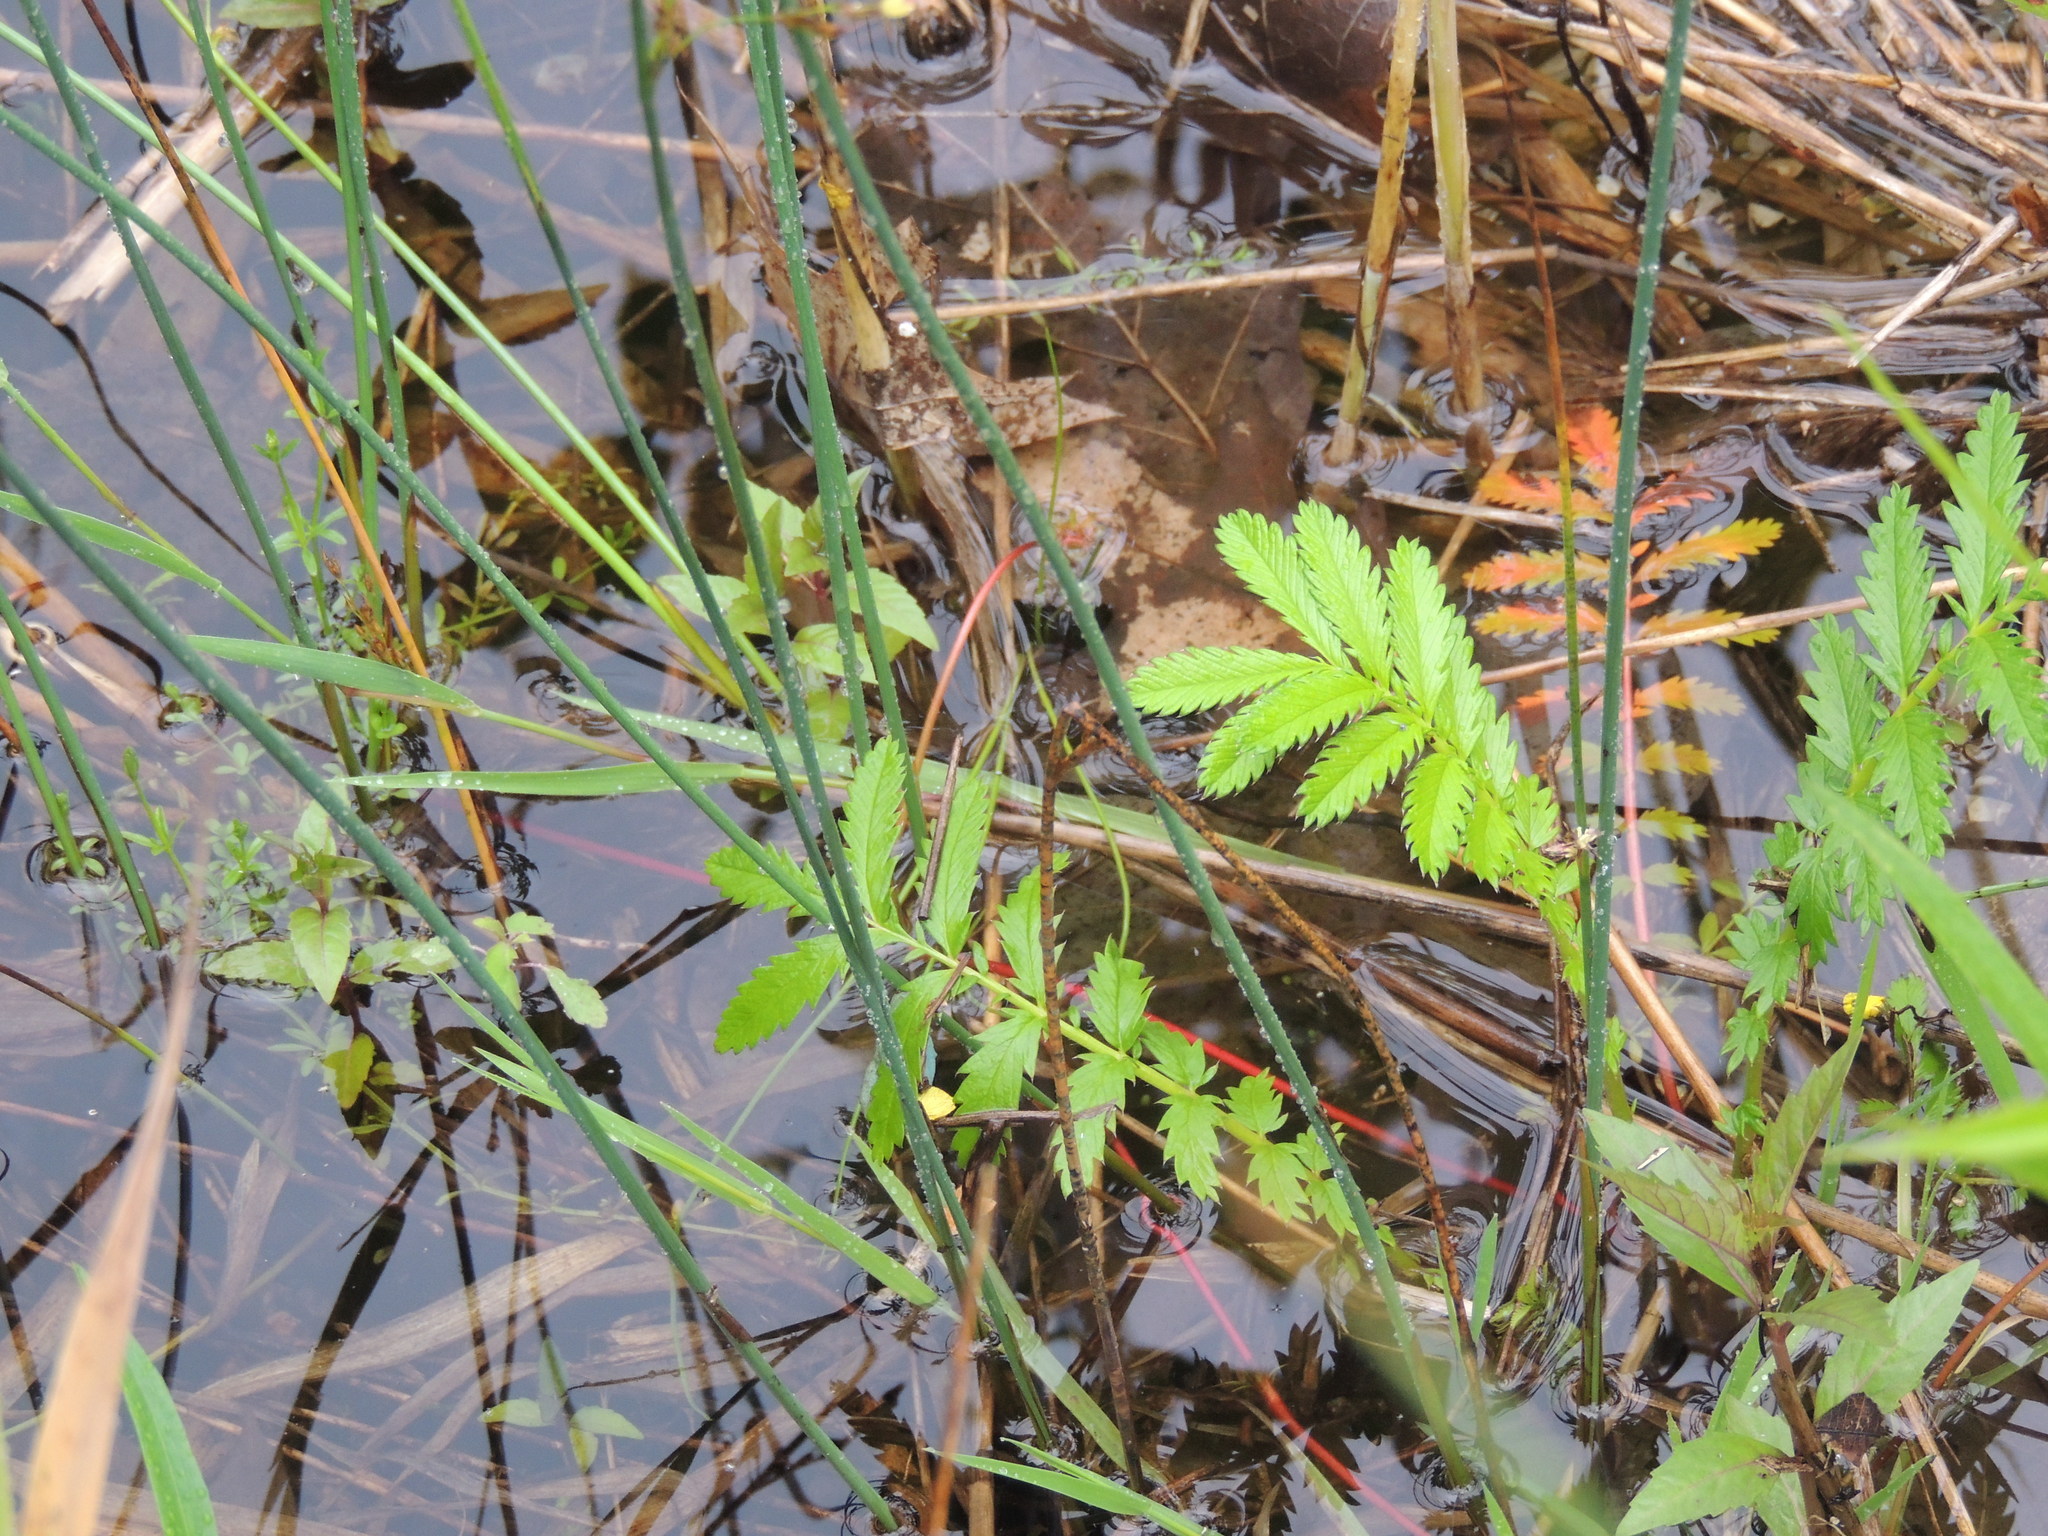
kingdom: Plantae
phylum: Tracheophyta
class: Magnoliopsida
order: Rosales
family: Rosaceae
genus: Comarum
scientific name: Comarum palustre
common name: Marsh cinquefoil
